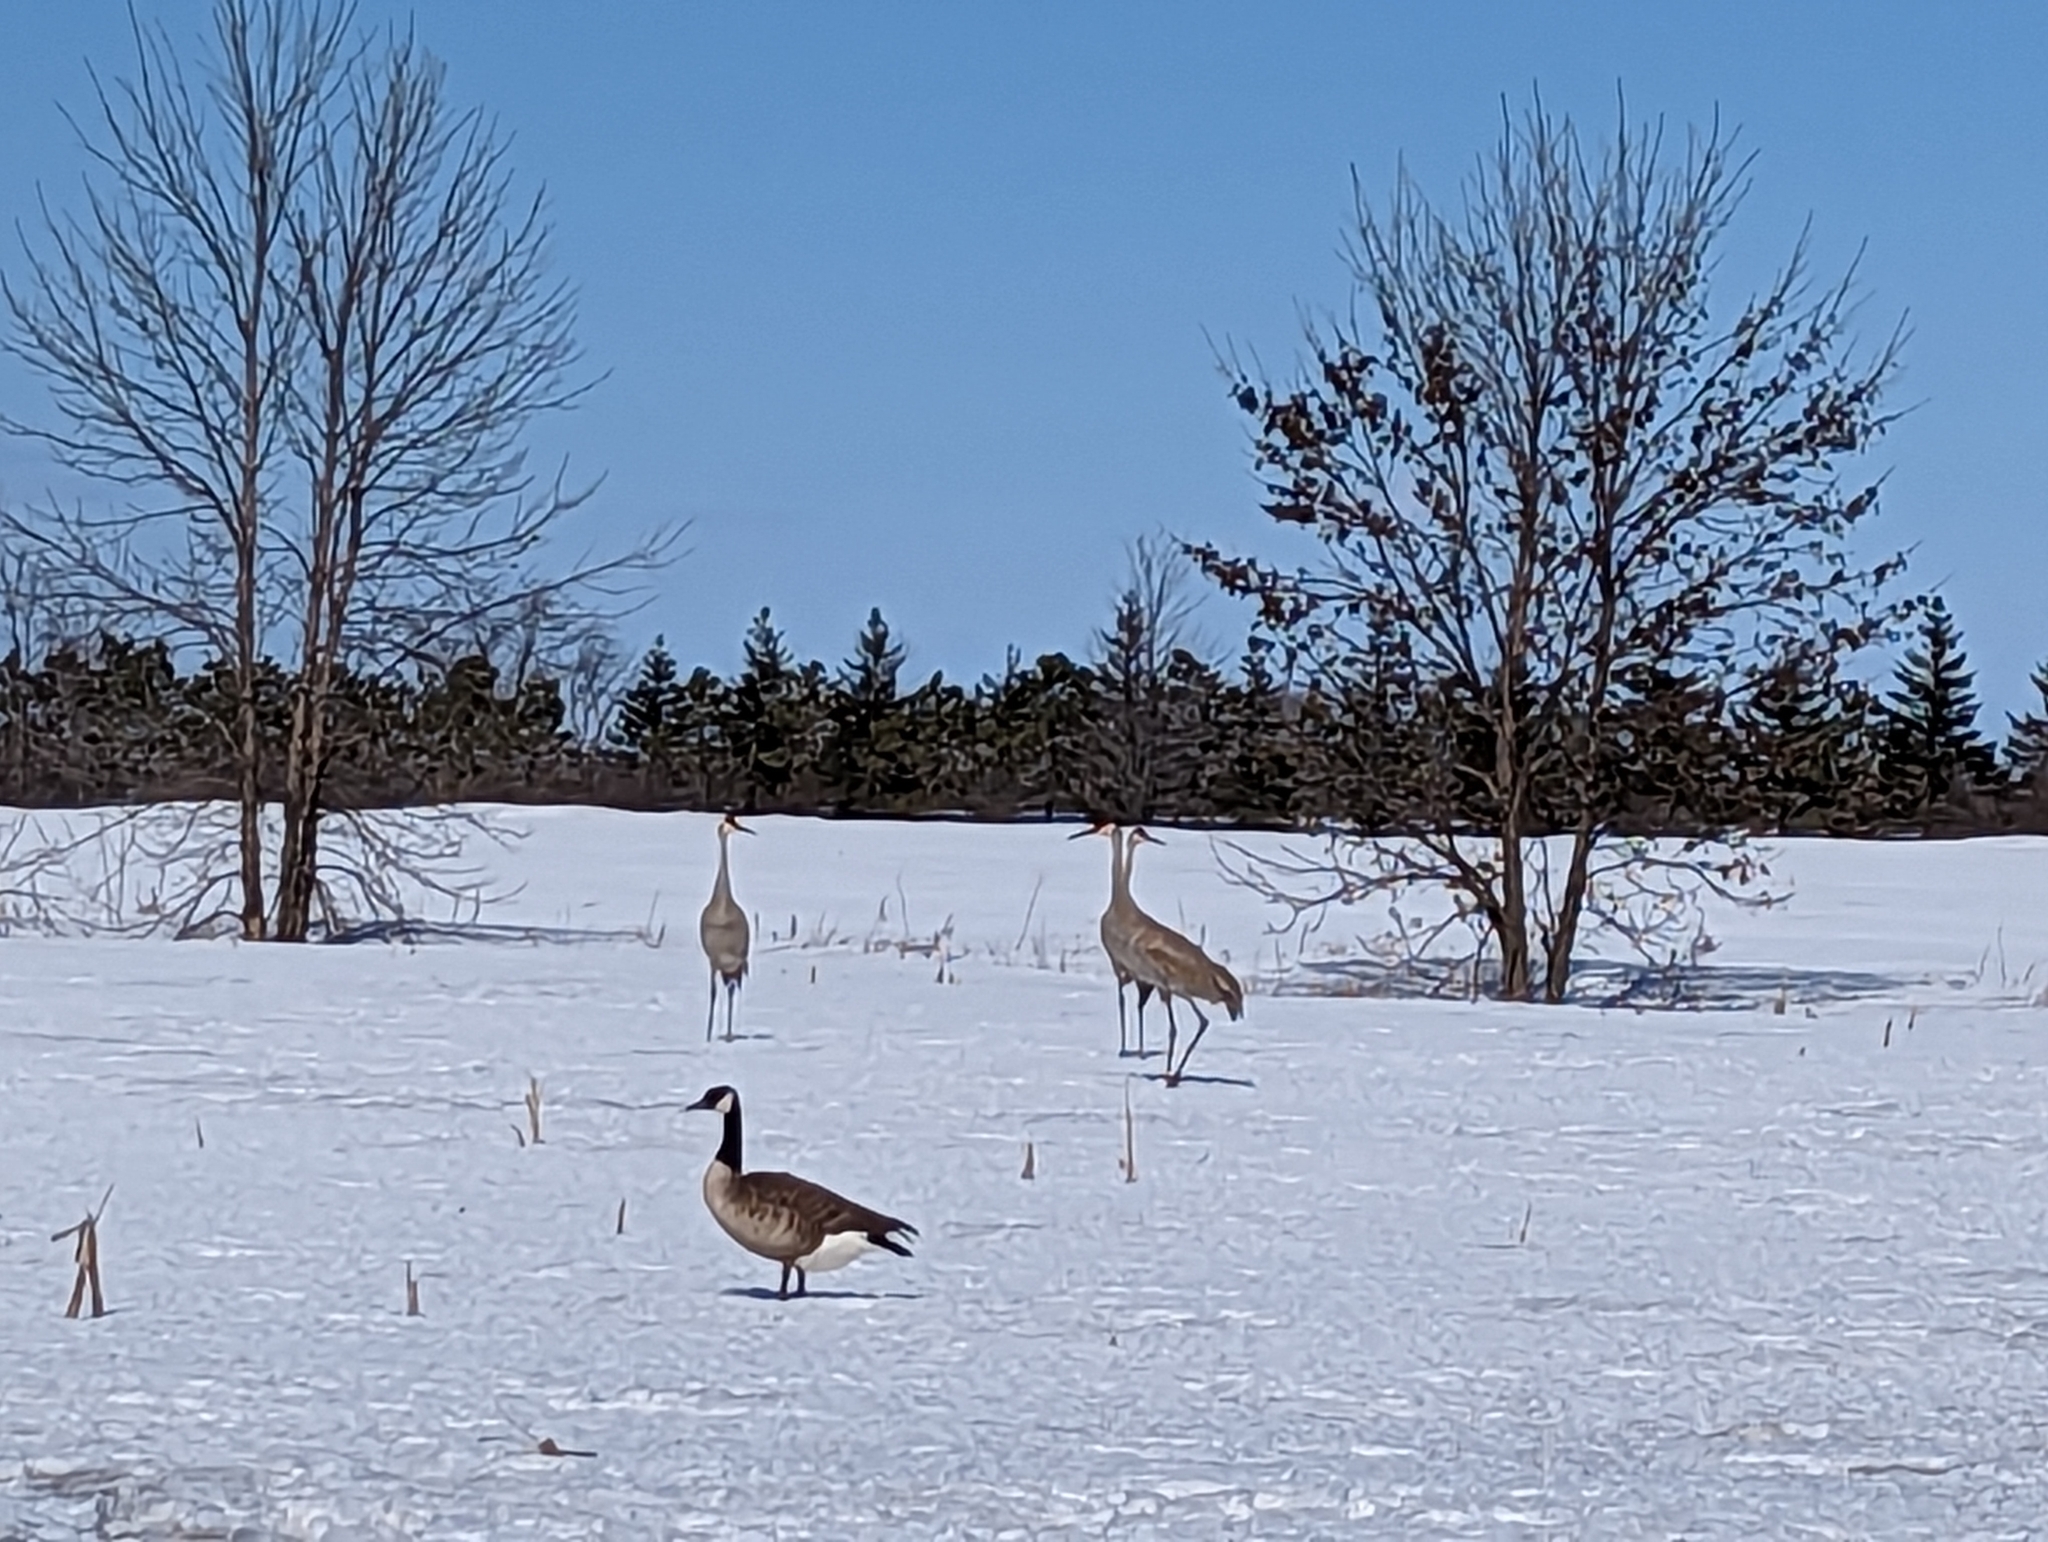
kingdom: Animalia
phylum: Chordata
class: Aves
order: Gruiformes
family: Gruidae
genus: Grus
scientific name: Grus canadensis
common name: Sandhill crane
